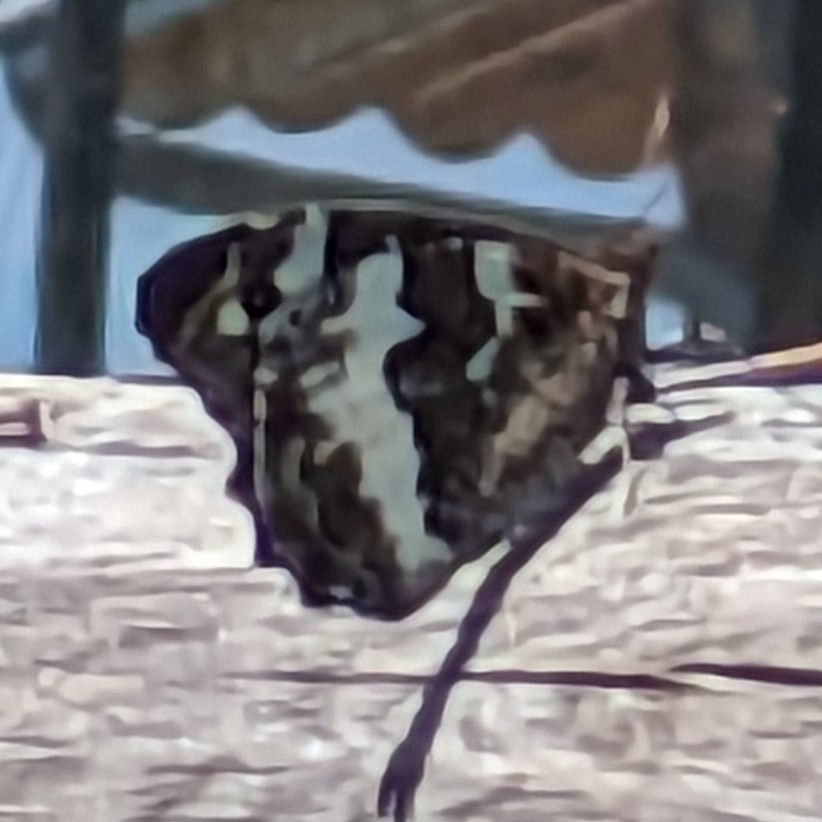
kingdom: Animalia
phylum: Arthropoda
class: Insecta
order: Lepidoptera
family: Lycaenidae
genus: Loweia
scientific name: Loweia tityrus
